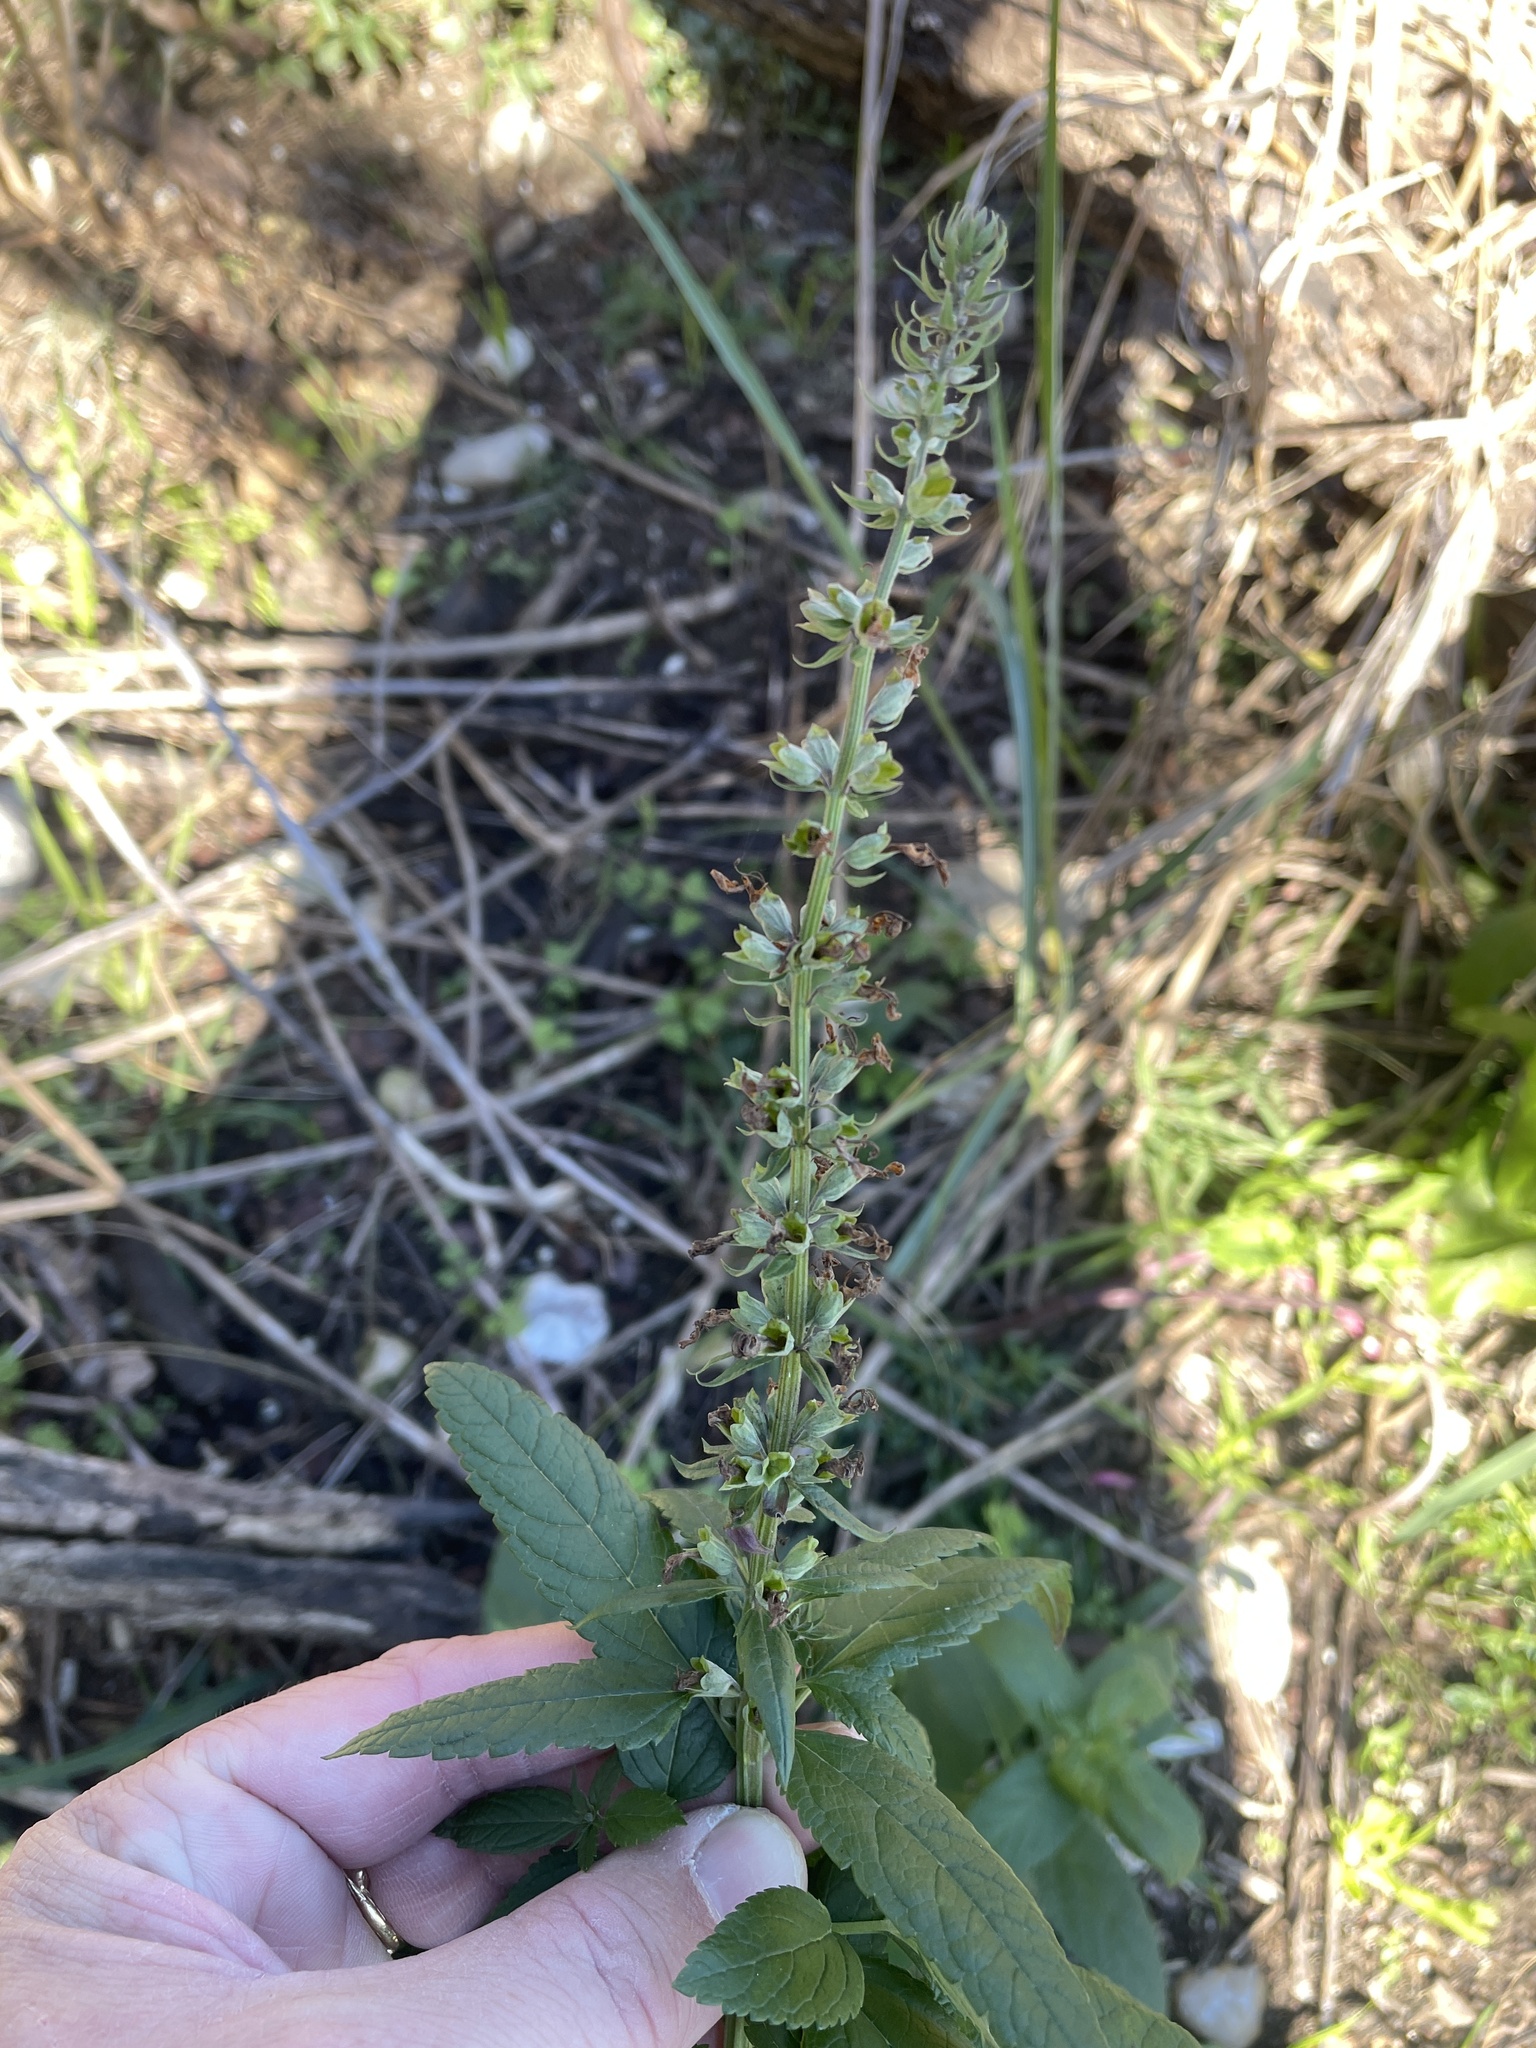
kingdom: Plantae
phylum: Tracheophyta
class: Magnoliopsida
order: Lamiales
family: Lamiaceae
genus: Teucrium
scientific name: Teucrium canadense
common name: American germander
